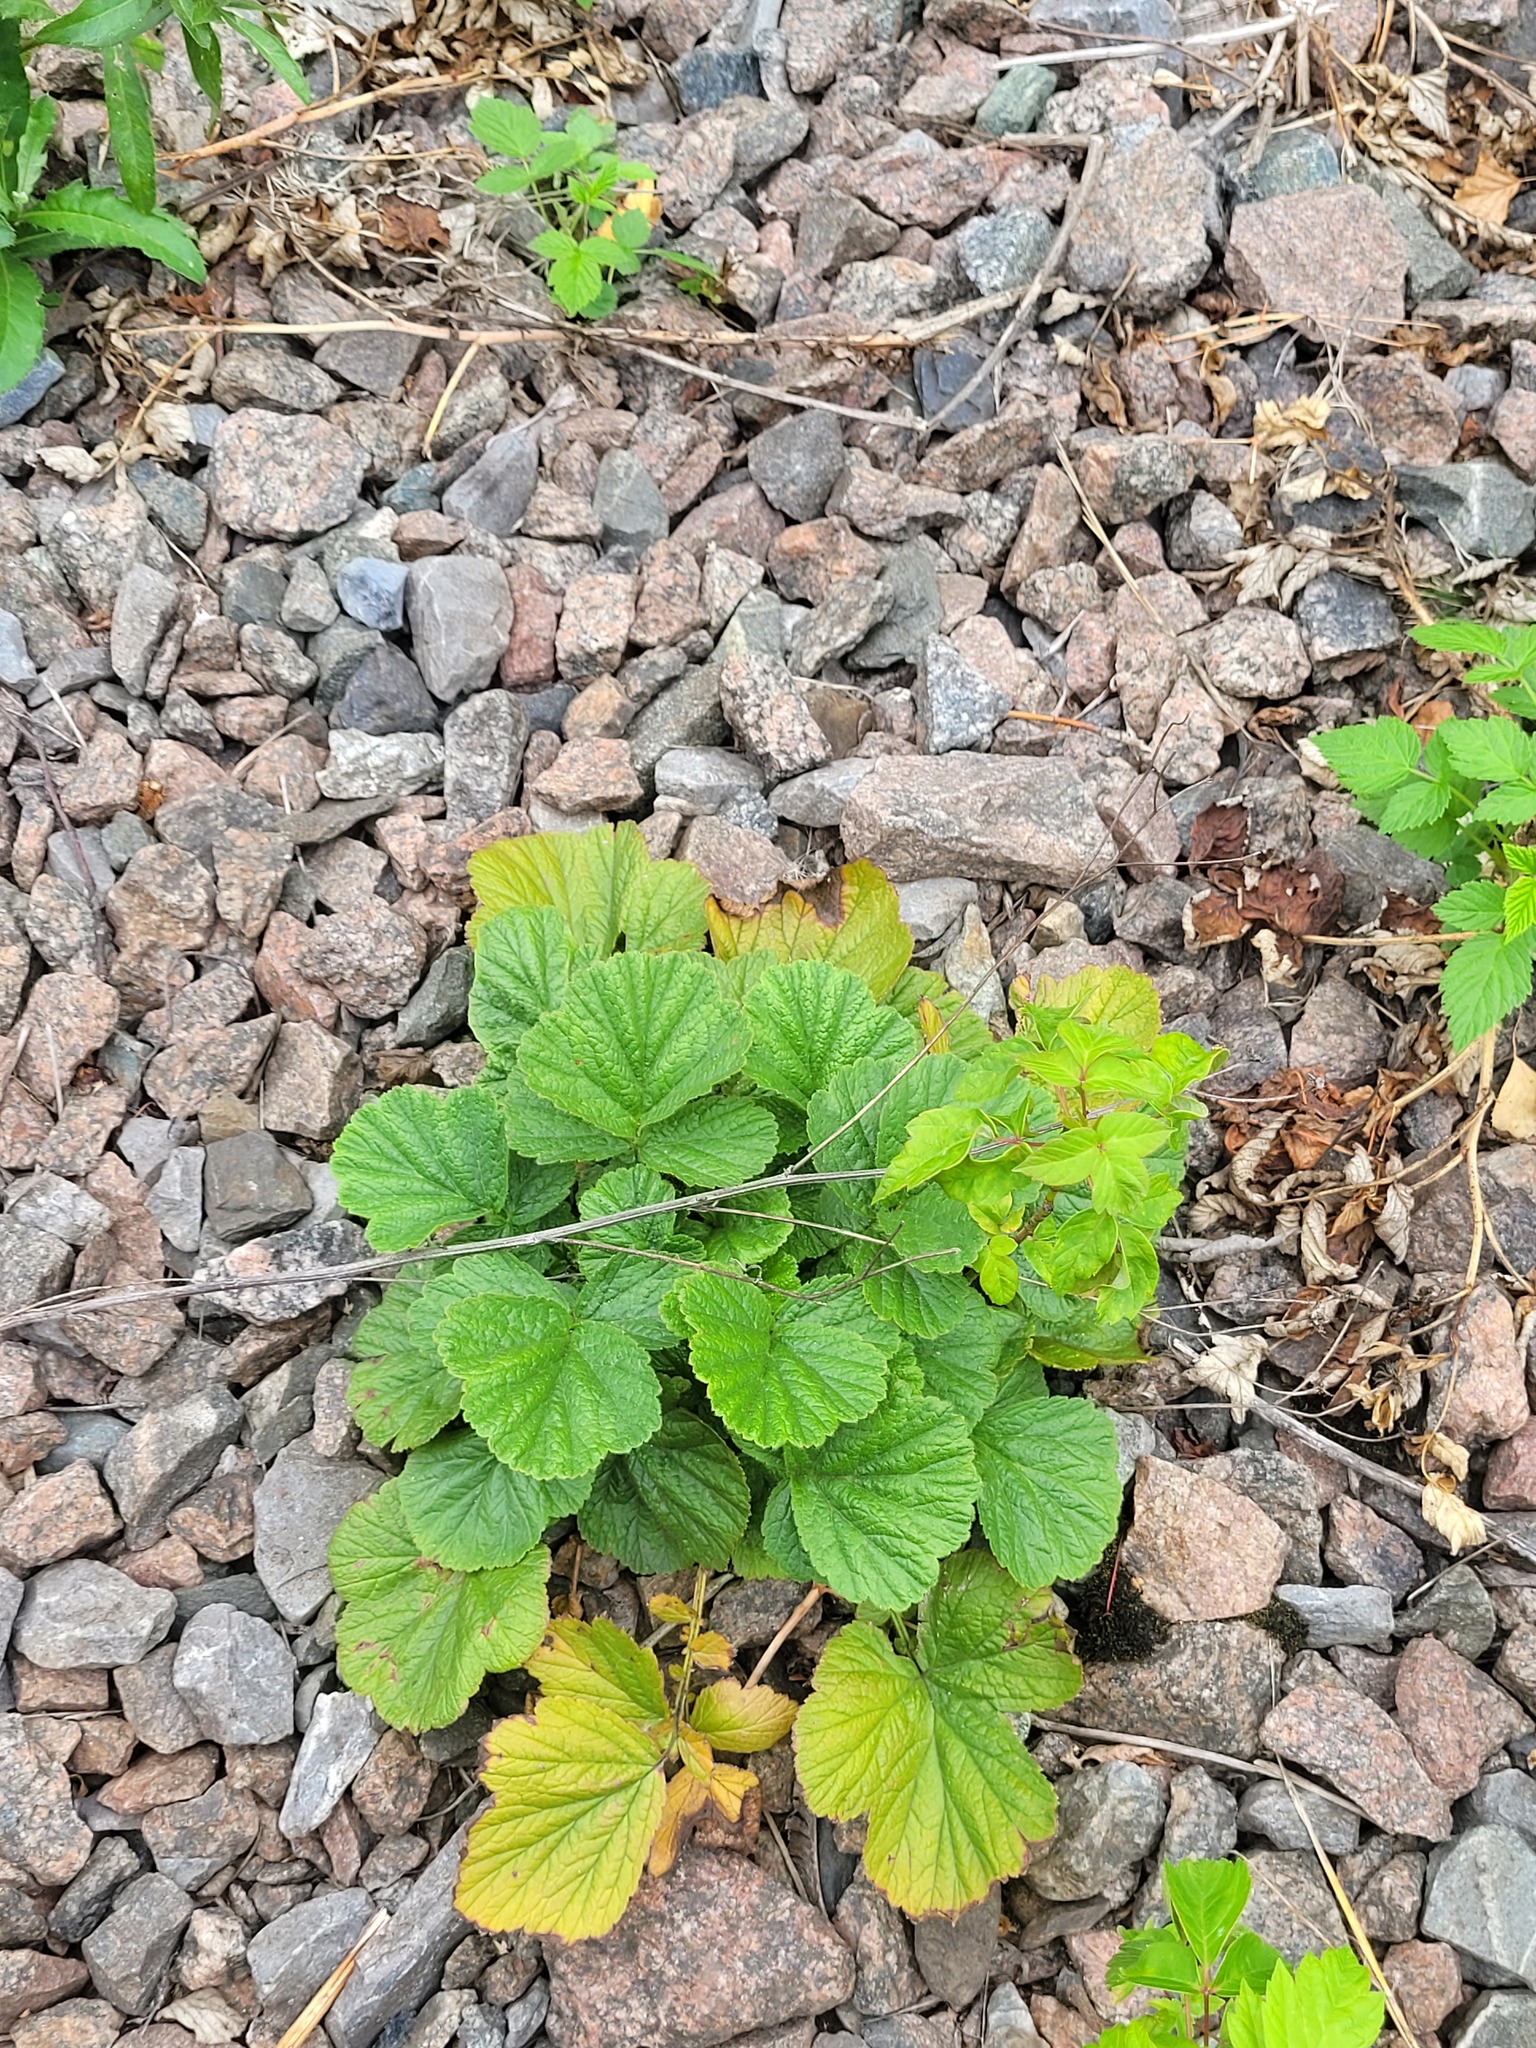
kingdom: Plantae
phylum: Tracheophyta
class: Magnoliopsida
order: Rosales
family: Rosaceae
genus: Geum
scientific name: Geum urbanum
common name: Wood avens
